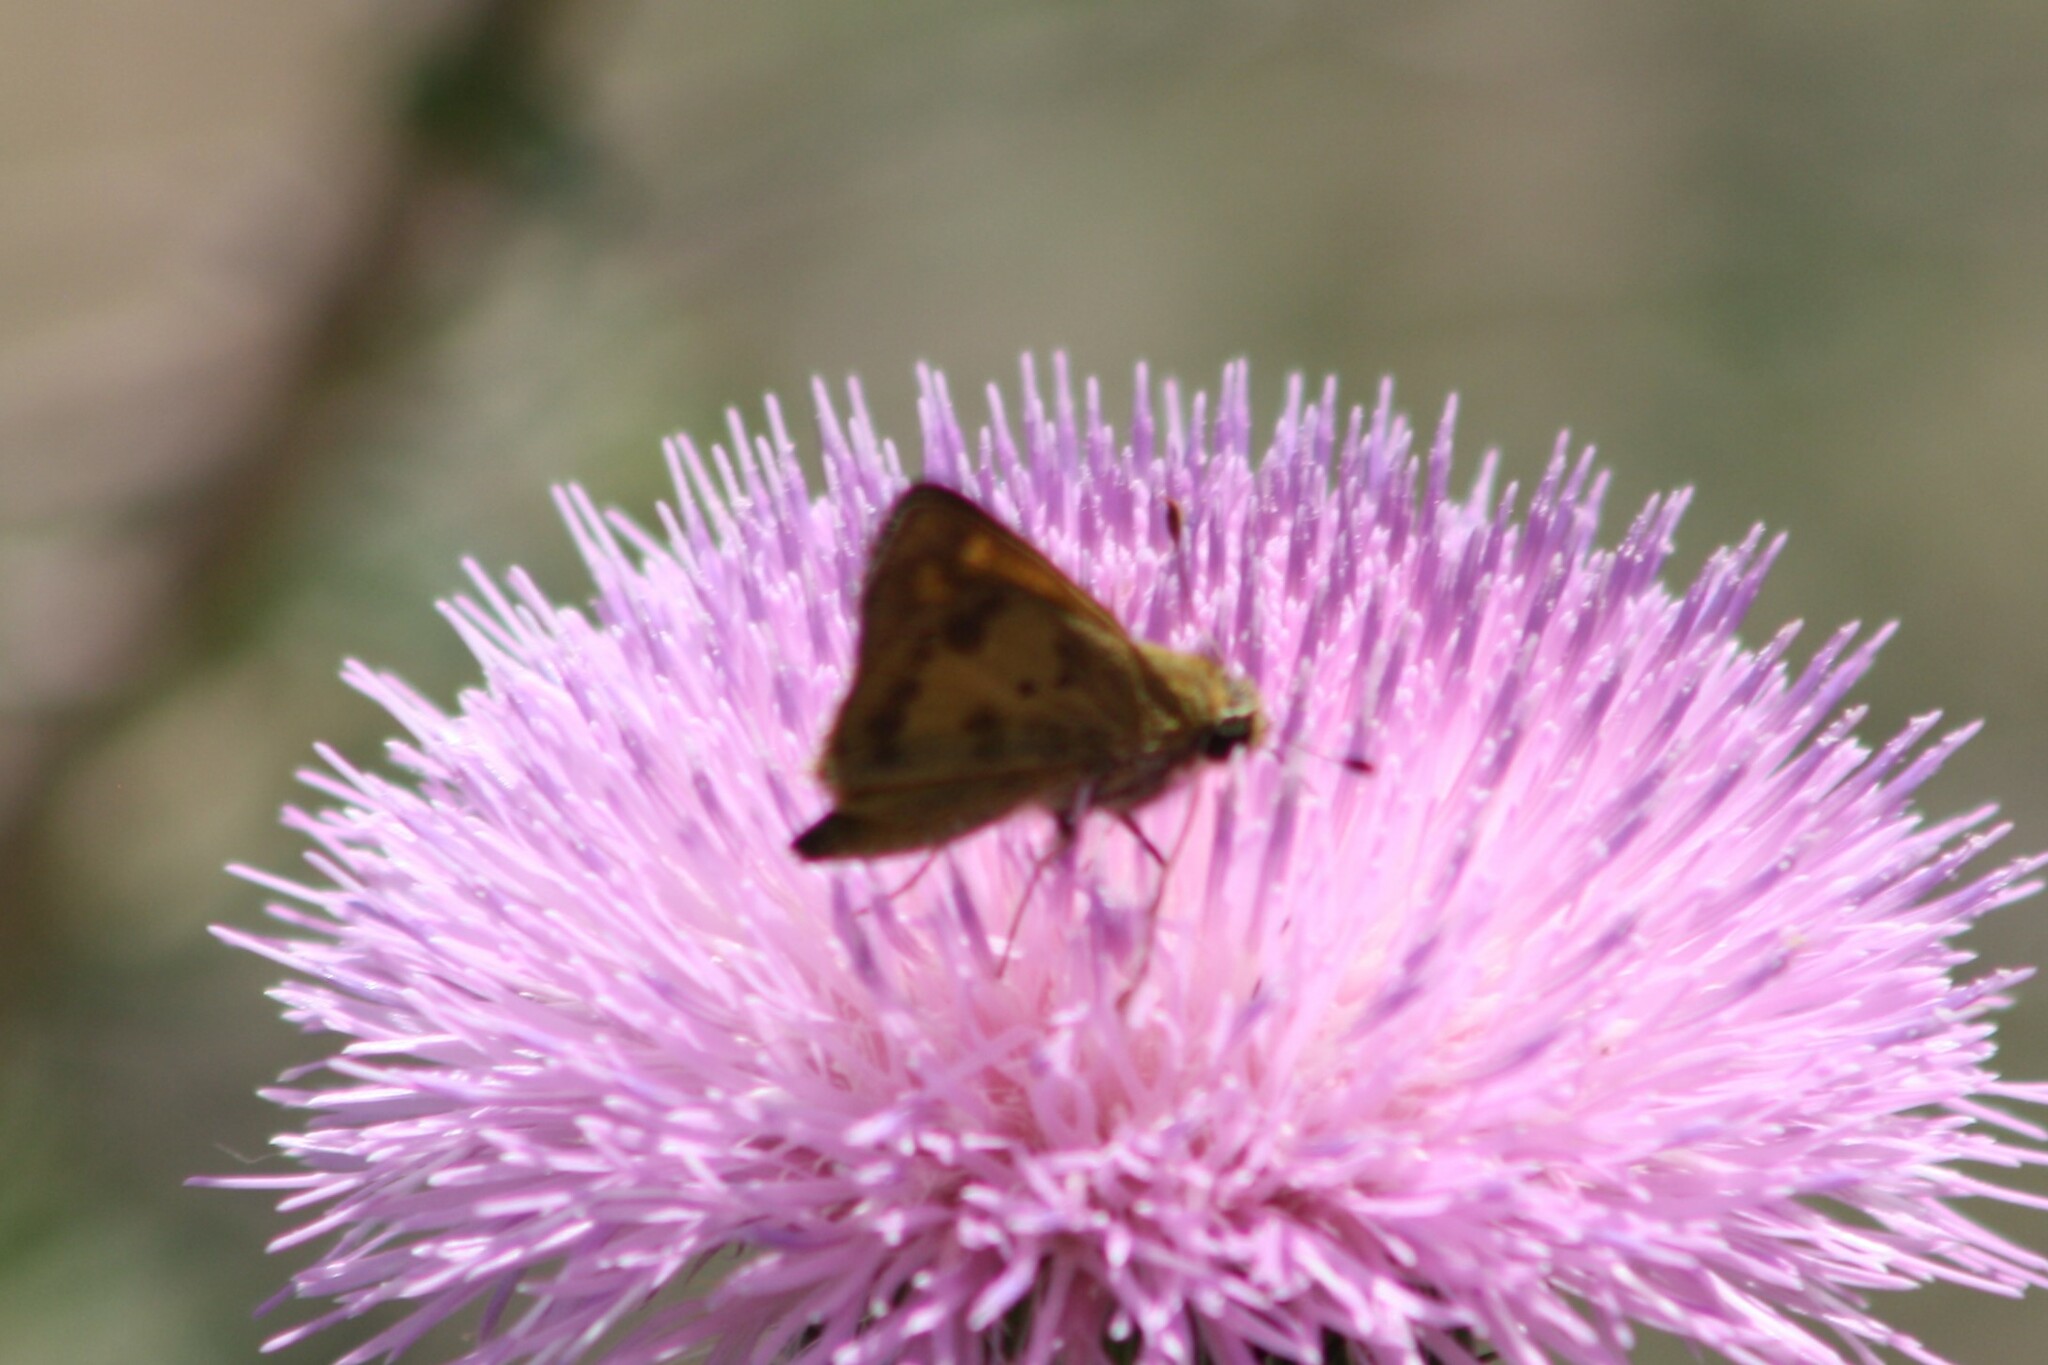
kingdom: Animalia
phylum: Arthropoda
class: Insecta
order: Lepidoptera
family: Hesperiidae
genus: Polites
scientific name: Polites vibex
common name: Whirlabout
